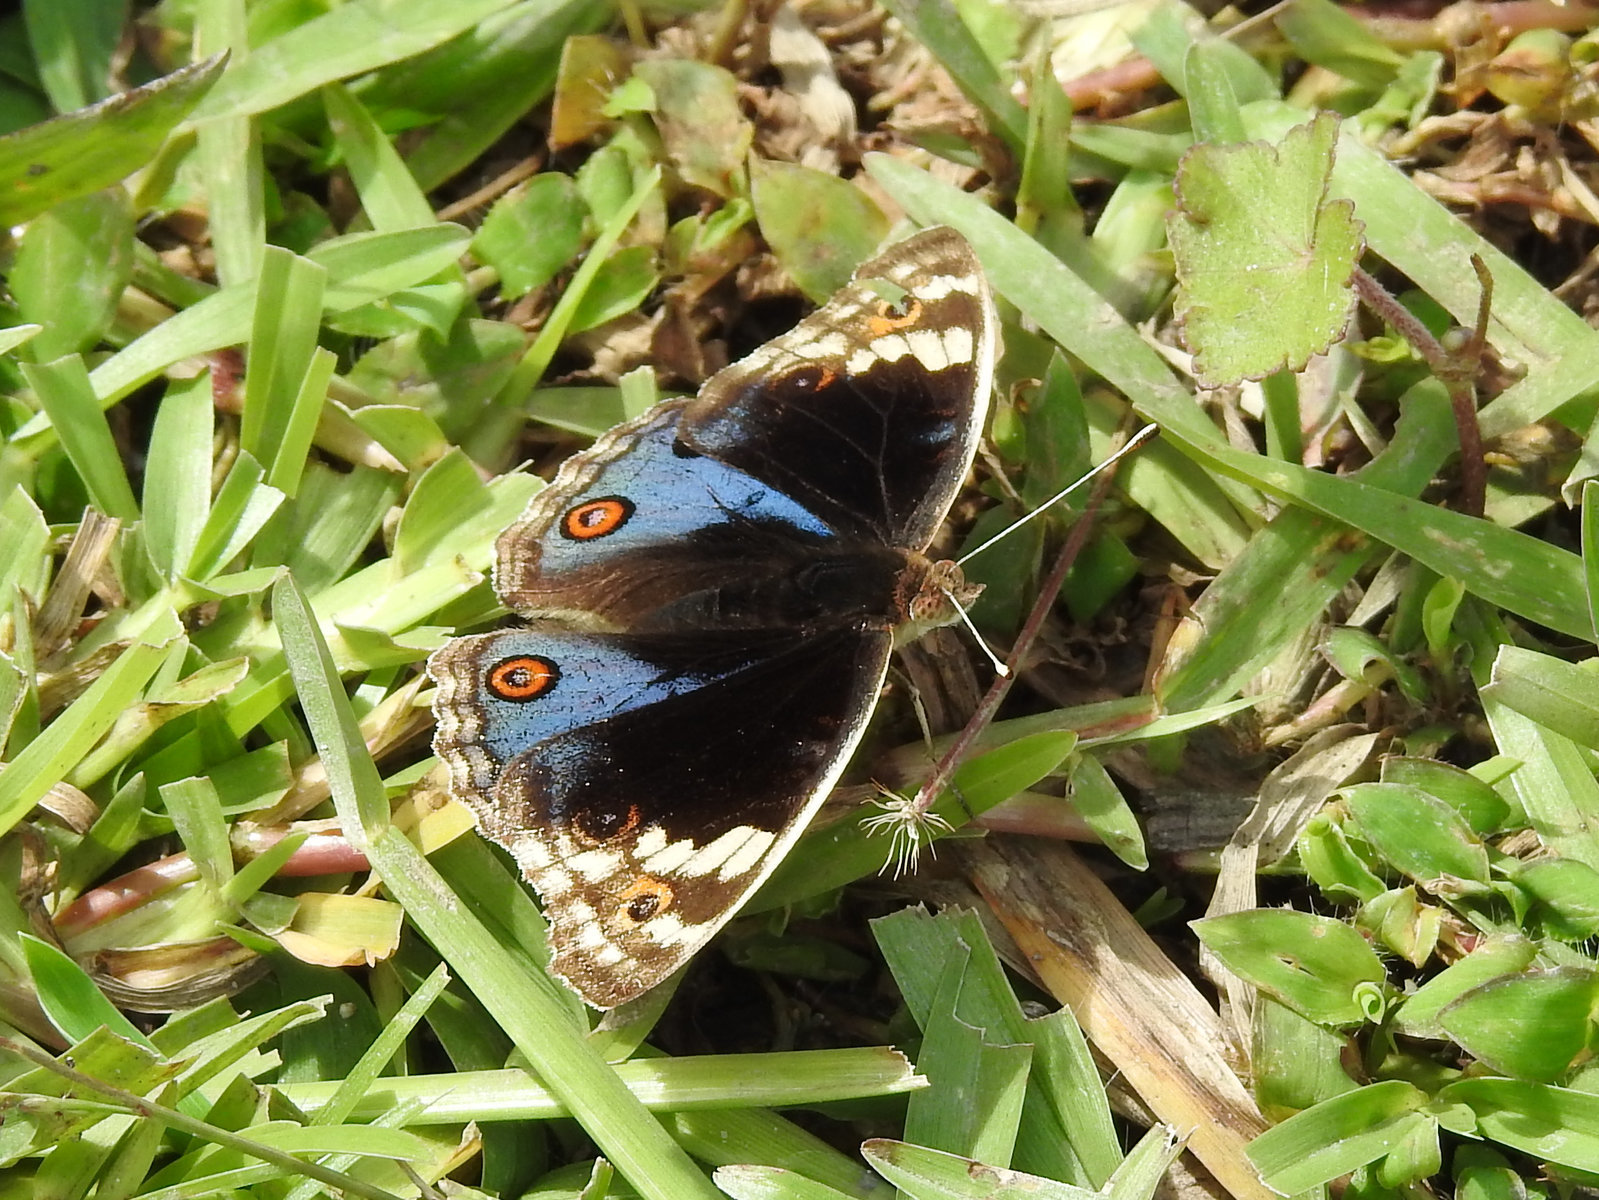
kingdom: Animalia
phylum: Arthropoda
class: Insecta
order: Lepidoptera
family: Nymphalidae
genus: Junonia
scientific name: Junonia orithya
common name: Blue pansy
